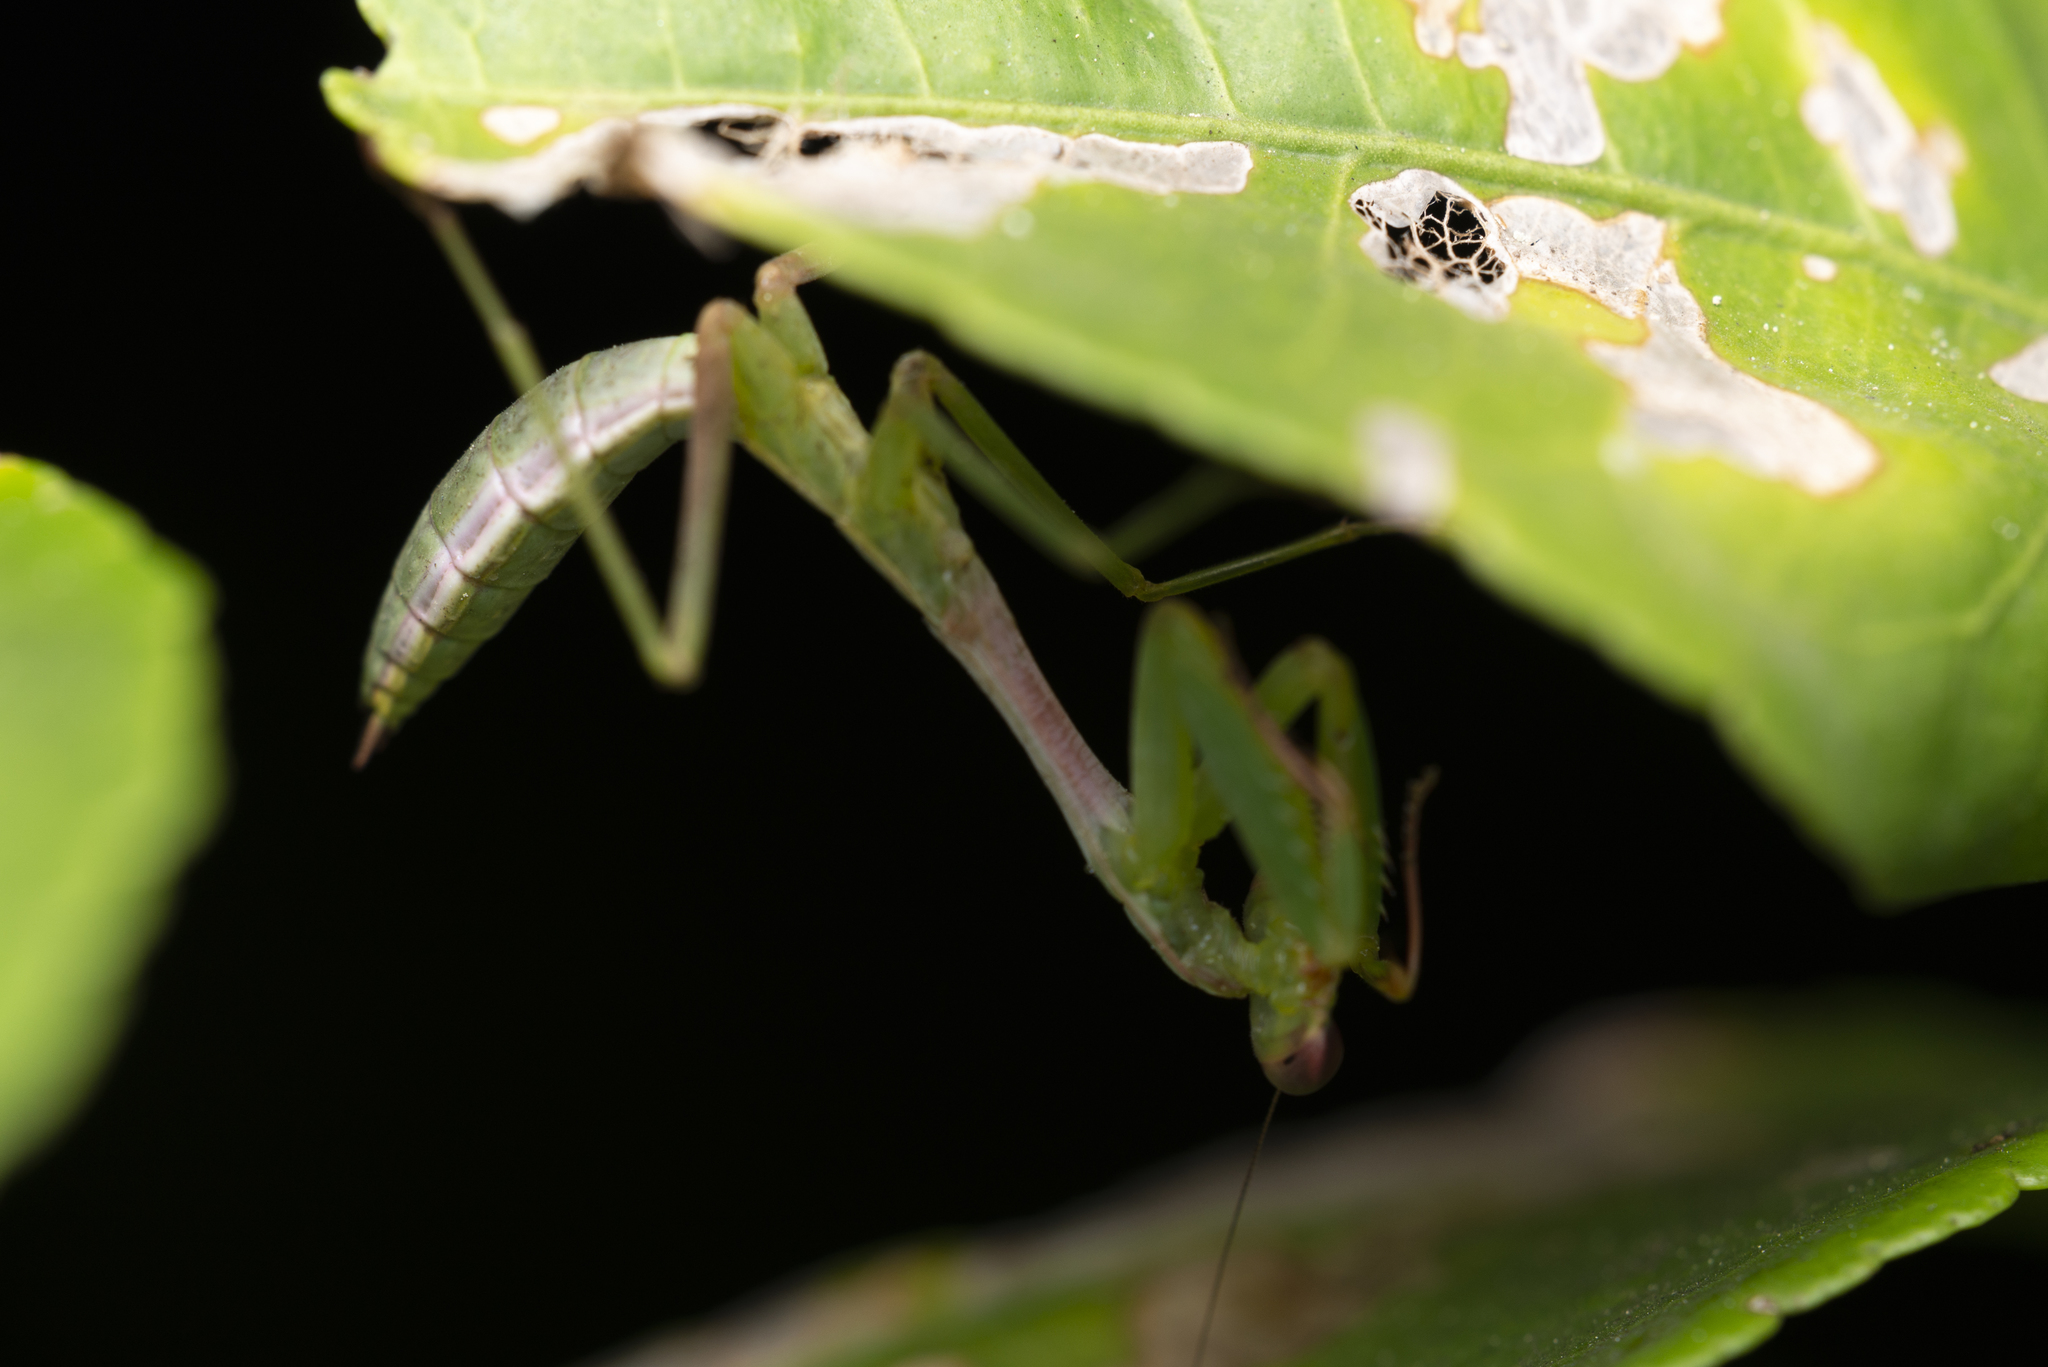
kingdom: Animalia
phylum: Arthropoda
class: Insecta
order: Mantodea
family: Mantidae
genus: Titanodula
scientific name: Titanodula formosana
